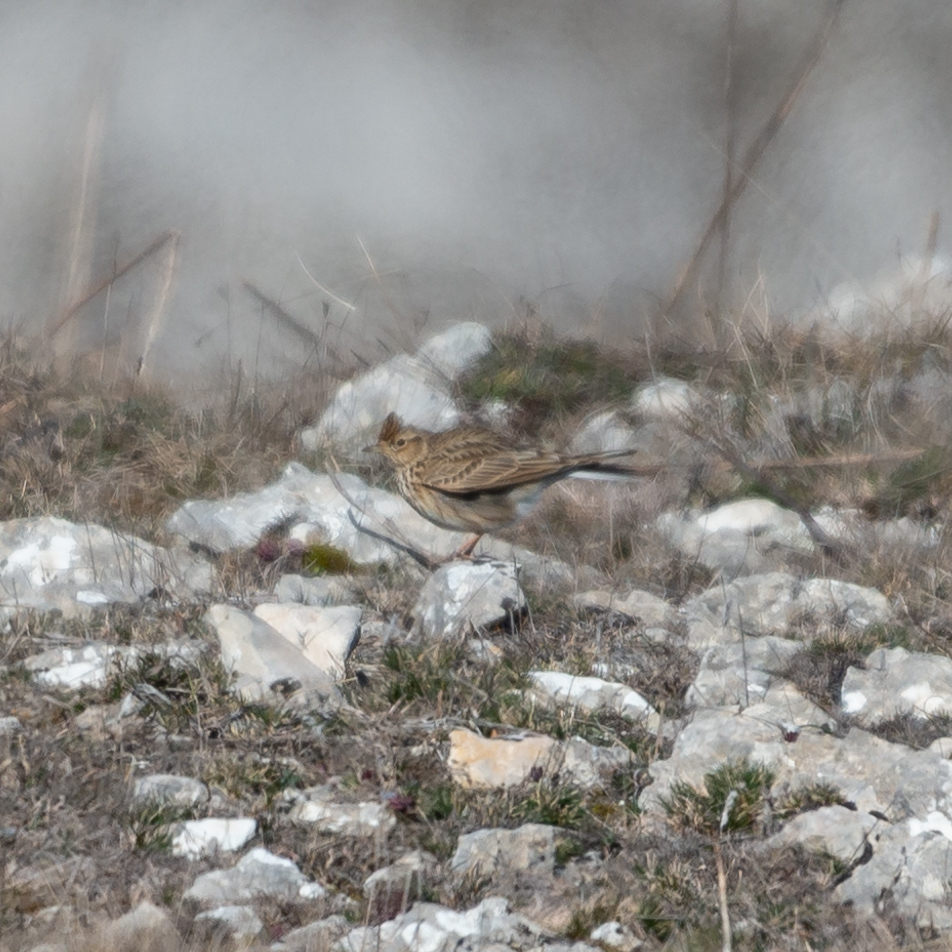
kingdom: Animalia
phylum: Chordata
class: Aves
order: Passeriformes
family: Alaudidae
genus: Alauda
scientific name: Alauda arvensis
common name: Eurasian skylark
